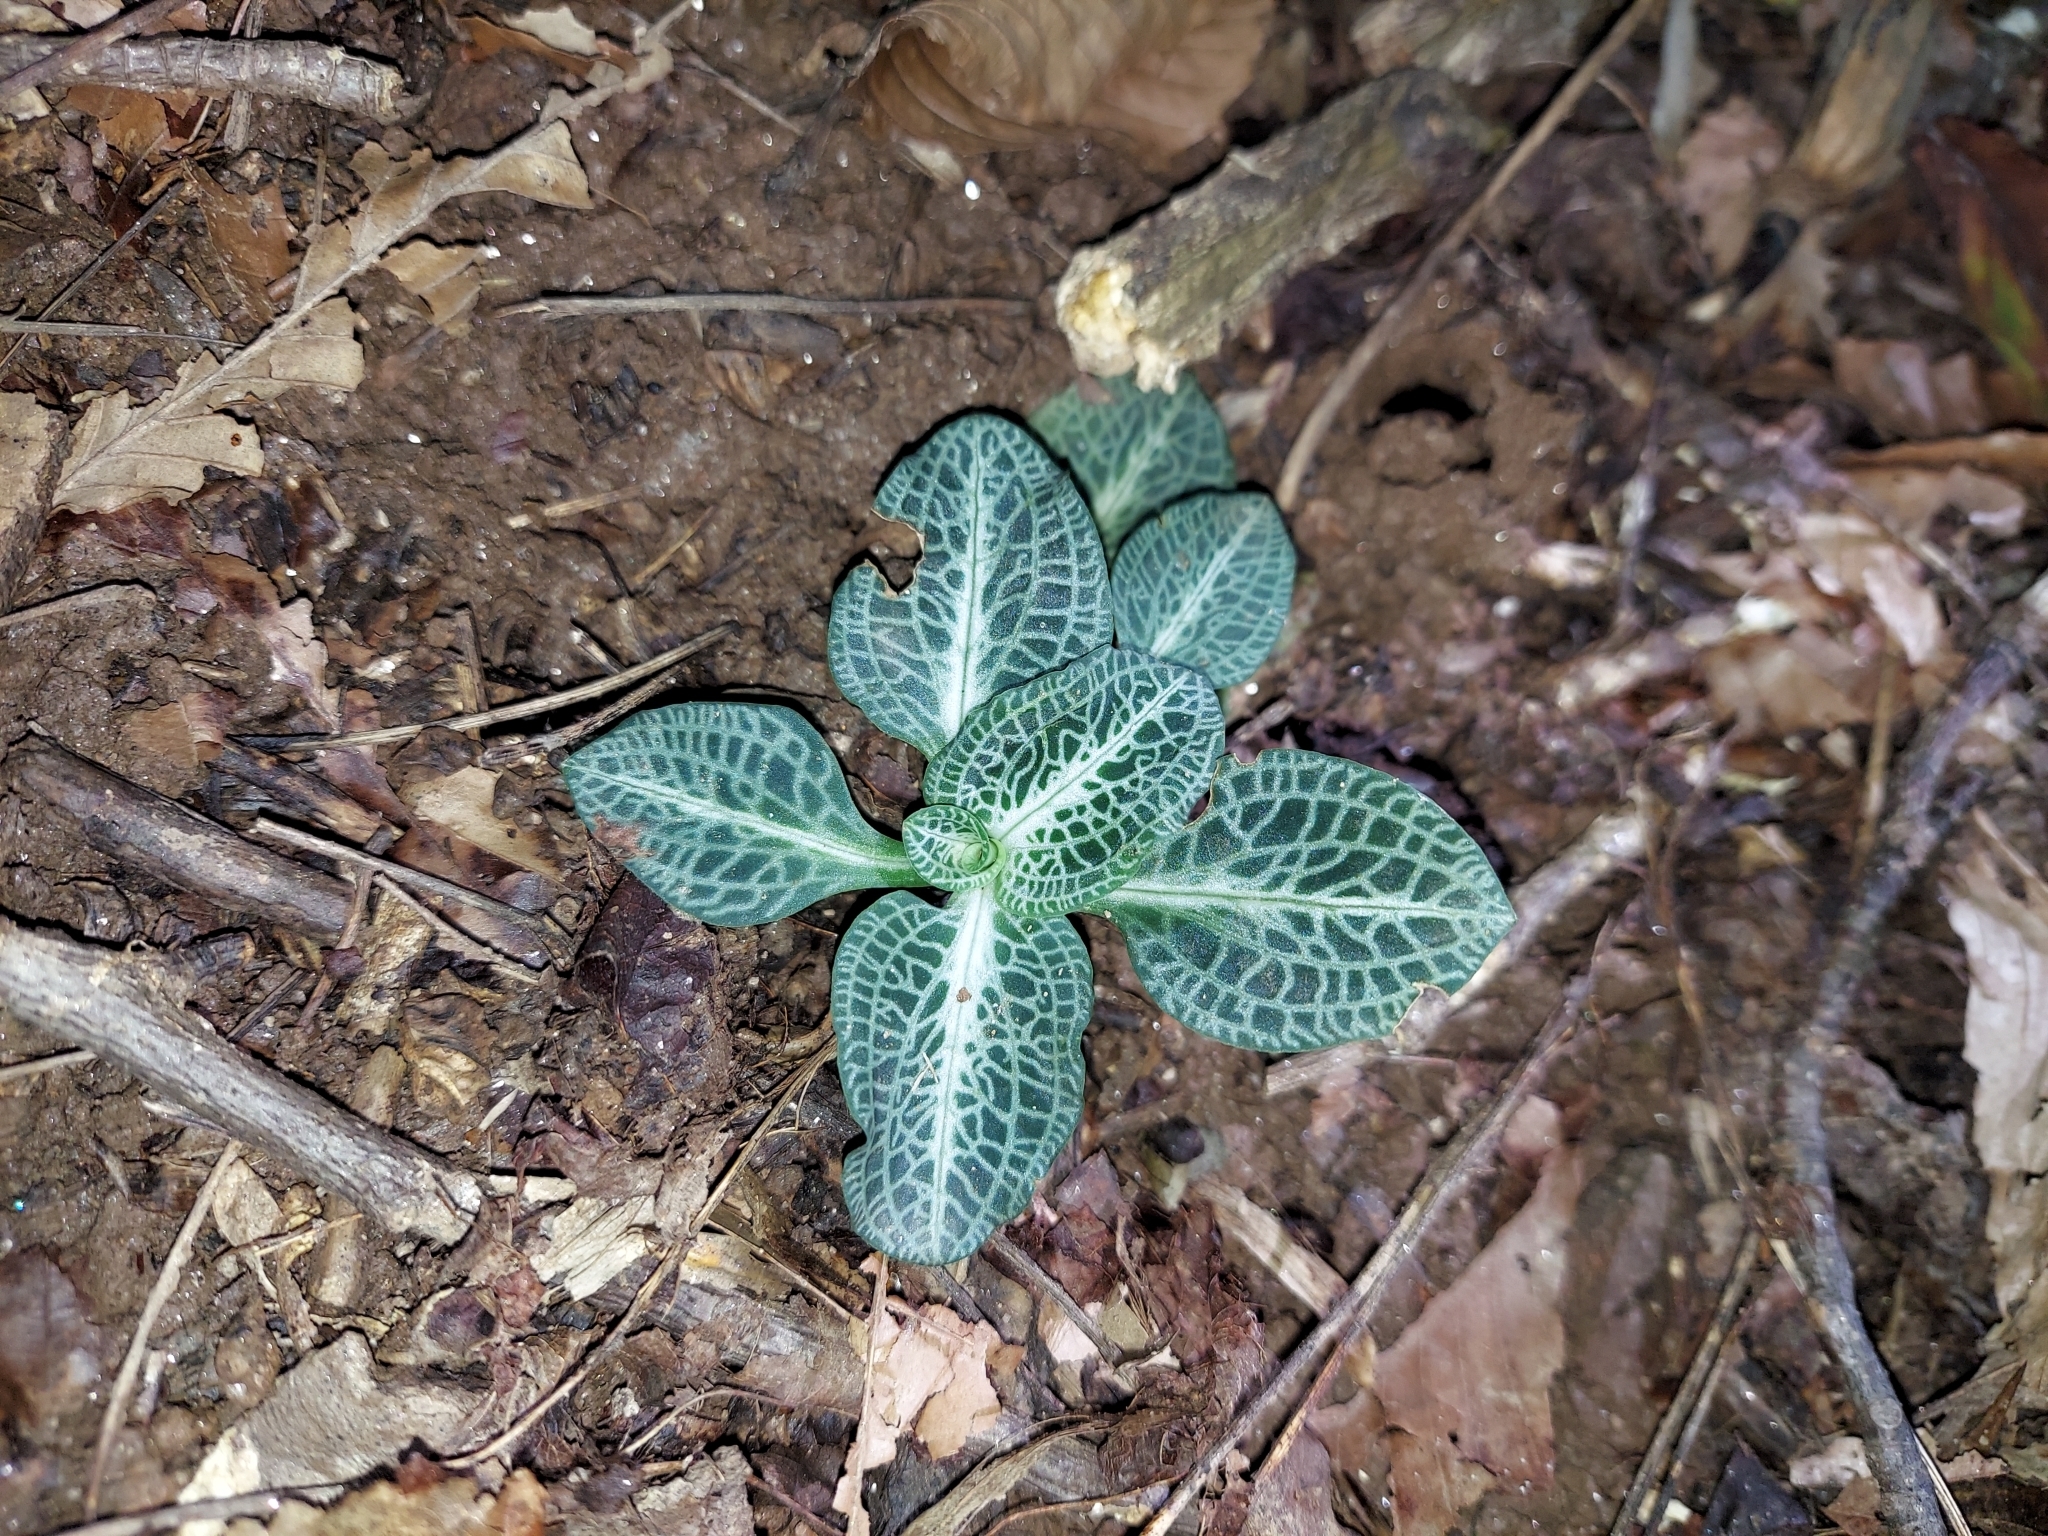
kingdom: Plantae
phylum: Tracheophyta
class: Liliopsida
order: Asparagales
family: Orchidaceae
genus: Goodyera
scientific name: Goodyera pubescens
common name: Downy rattlesnake-plantain
